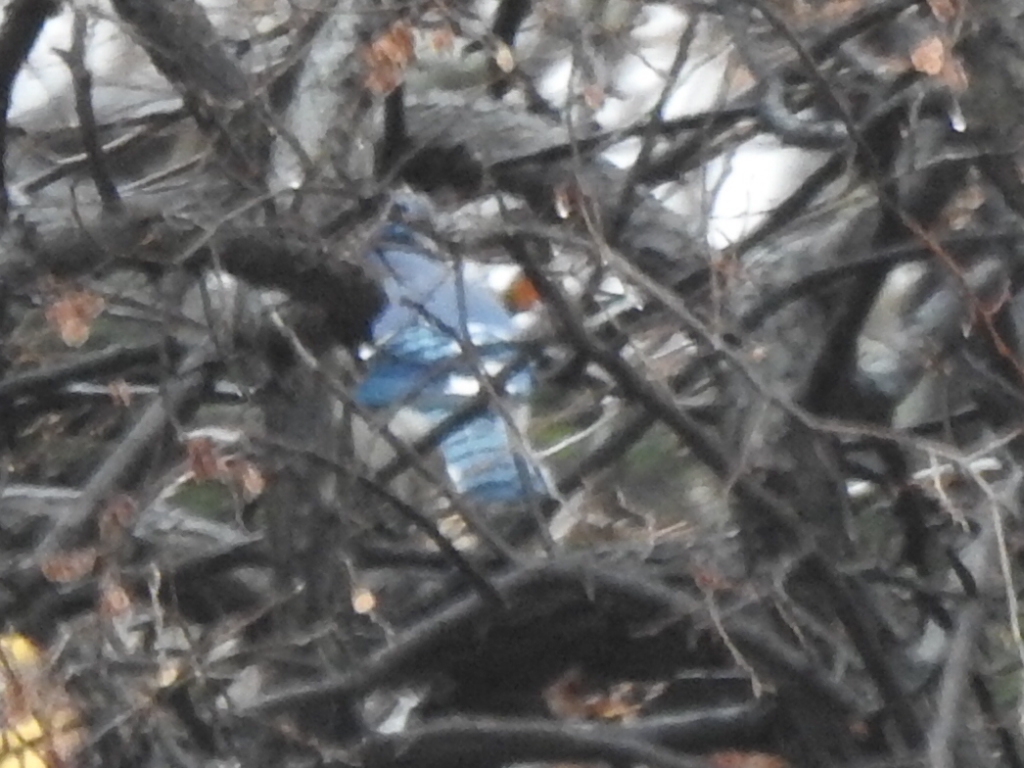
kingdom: Animalia
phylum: Chordata
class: Aves
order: Passeriformes
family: Corvidae
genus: Cyanocitta
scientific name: Cyanocitta cristata
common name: Blue jay
